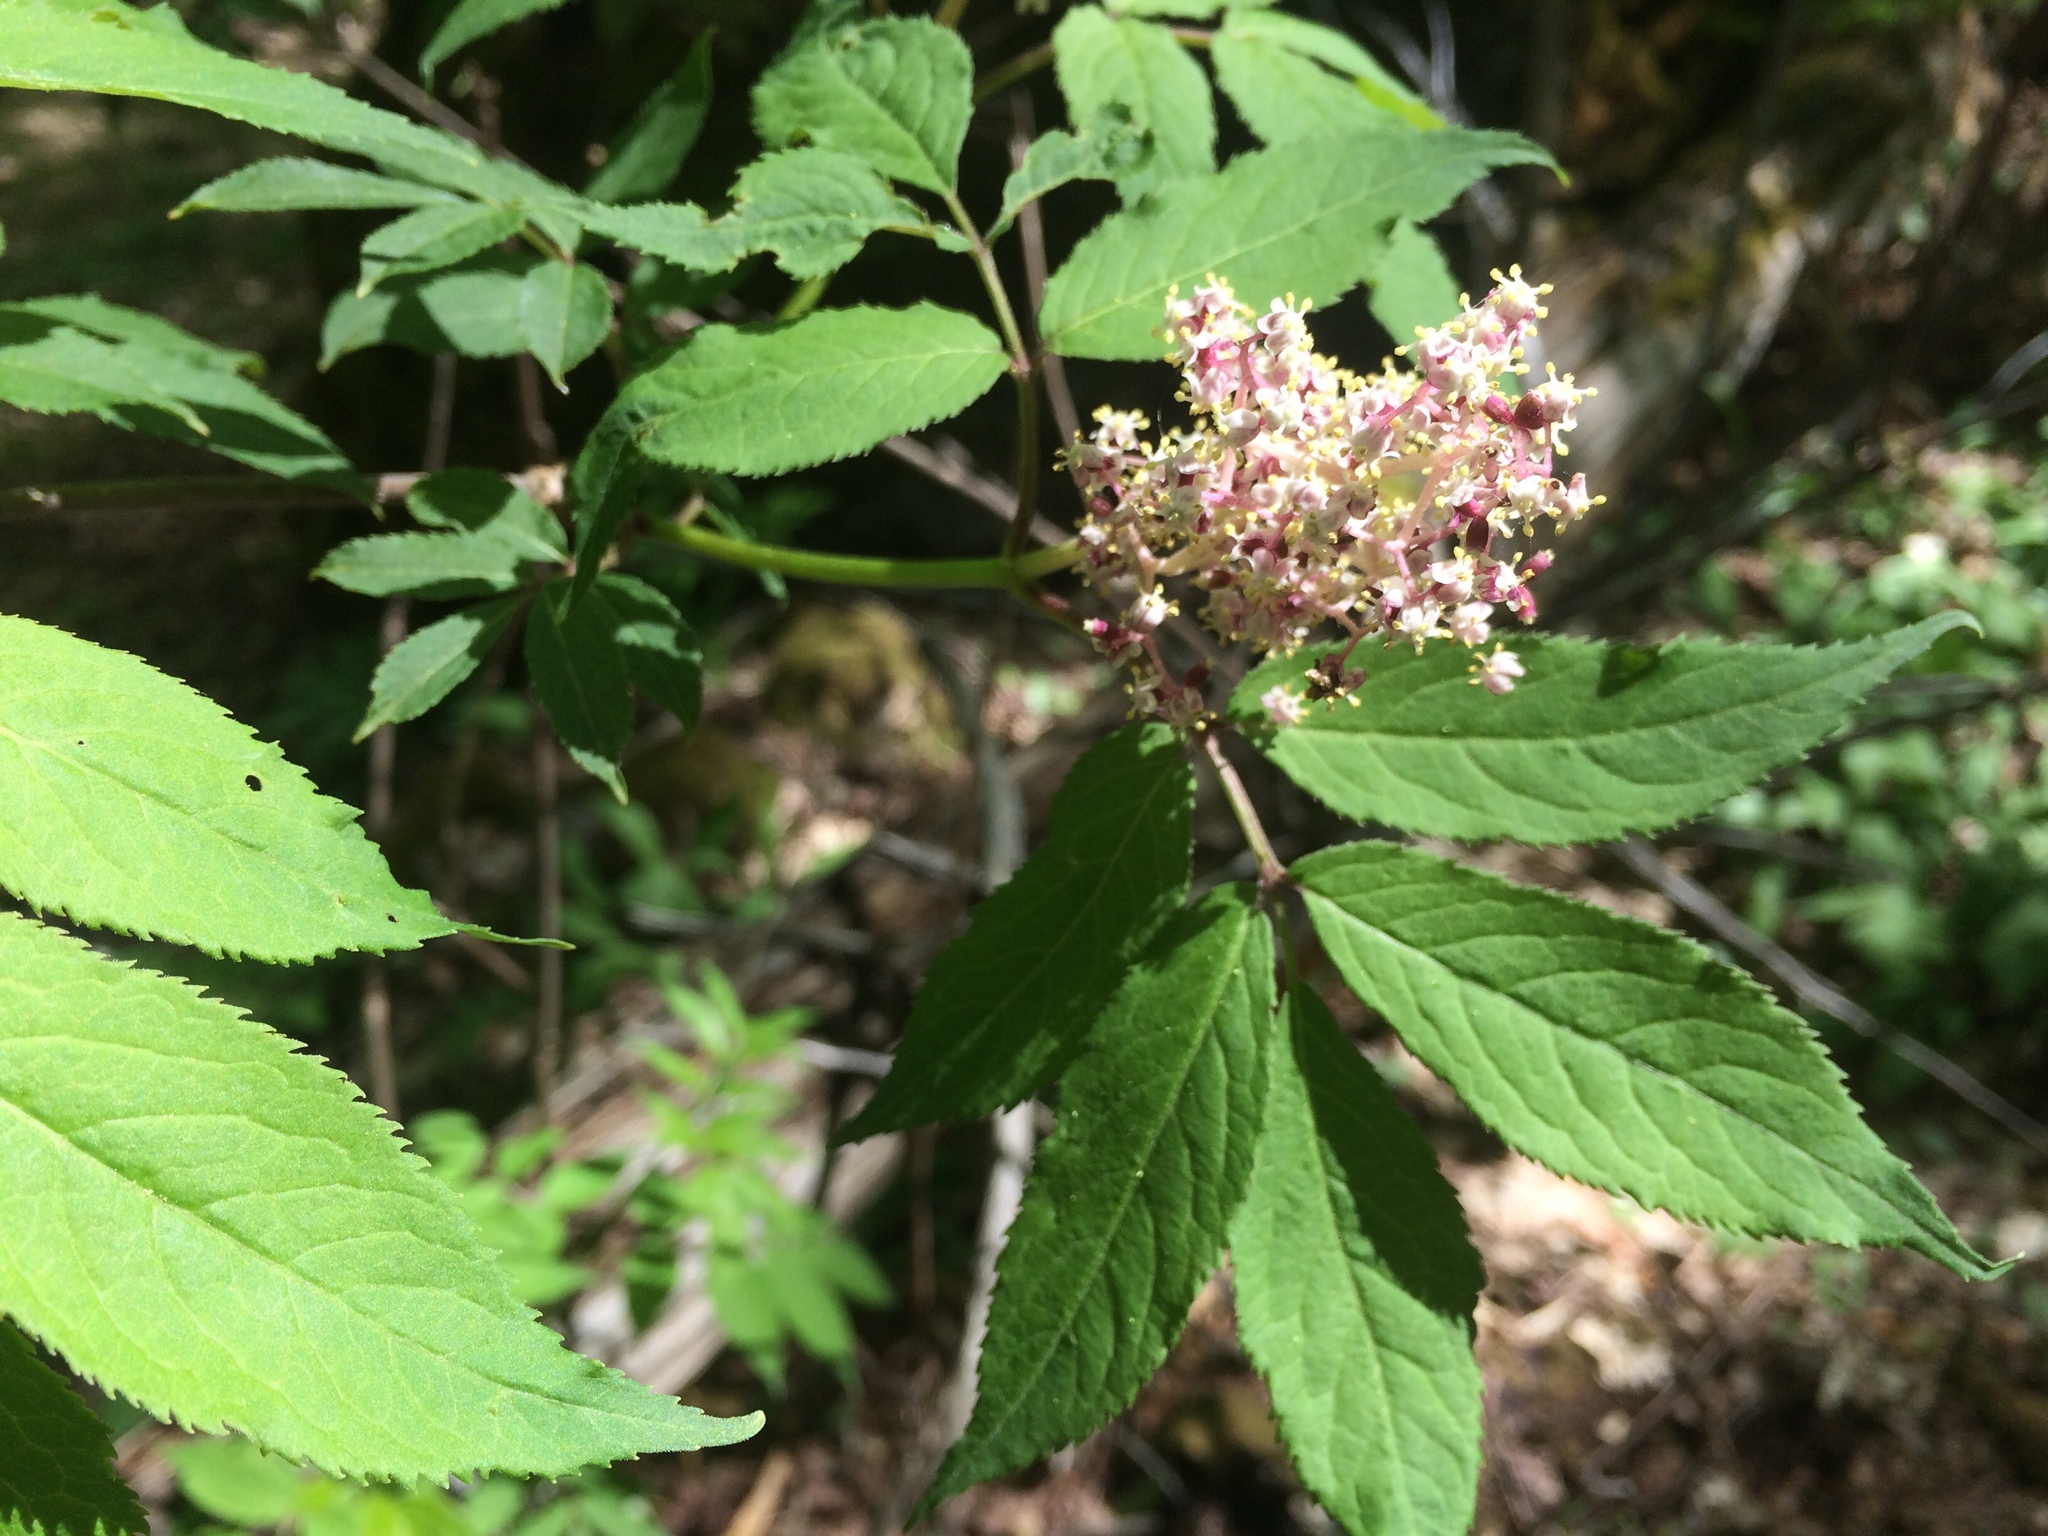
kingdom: Plantae
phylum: Tracheophyta
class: Magnoliopsida
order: Dipsacales
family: Viburnaceae
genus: Sambucus
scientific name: Sambucus racemosa
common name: Red-berried elder
